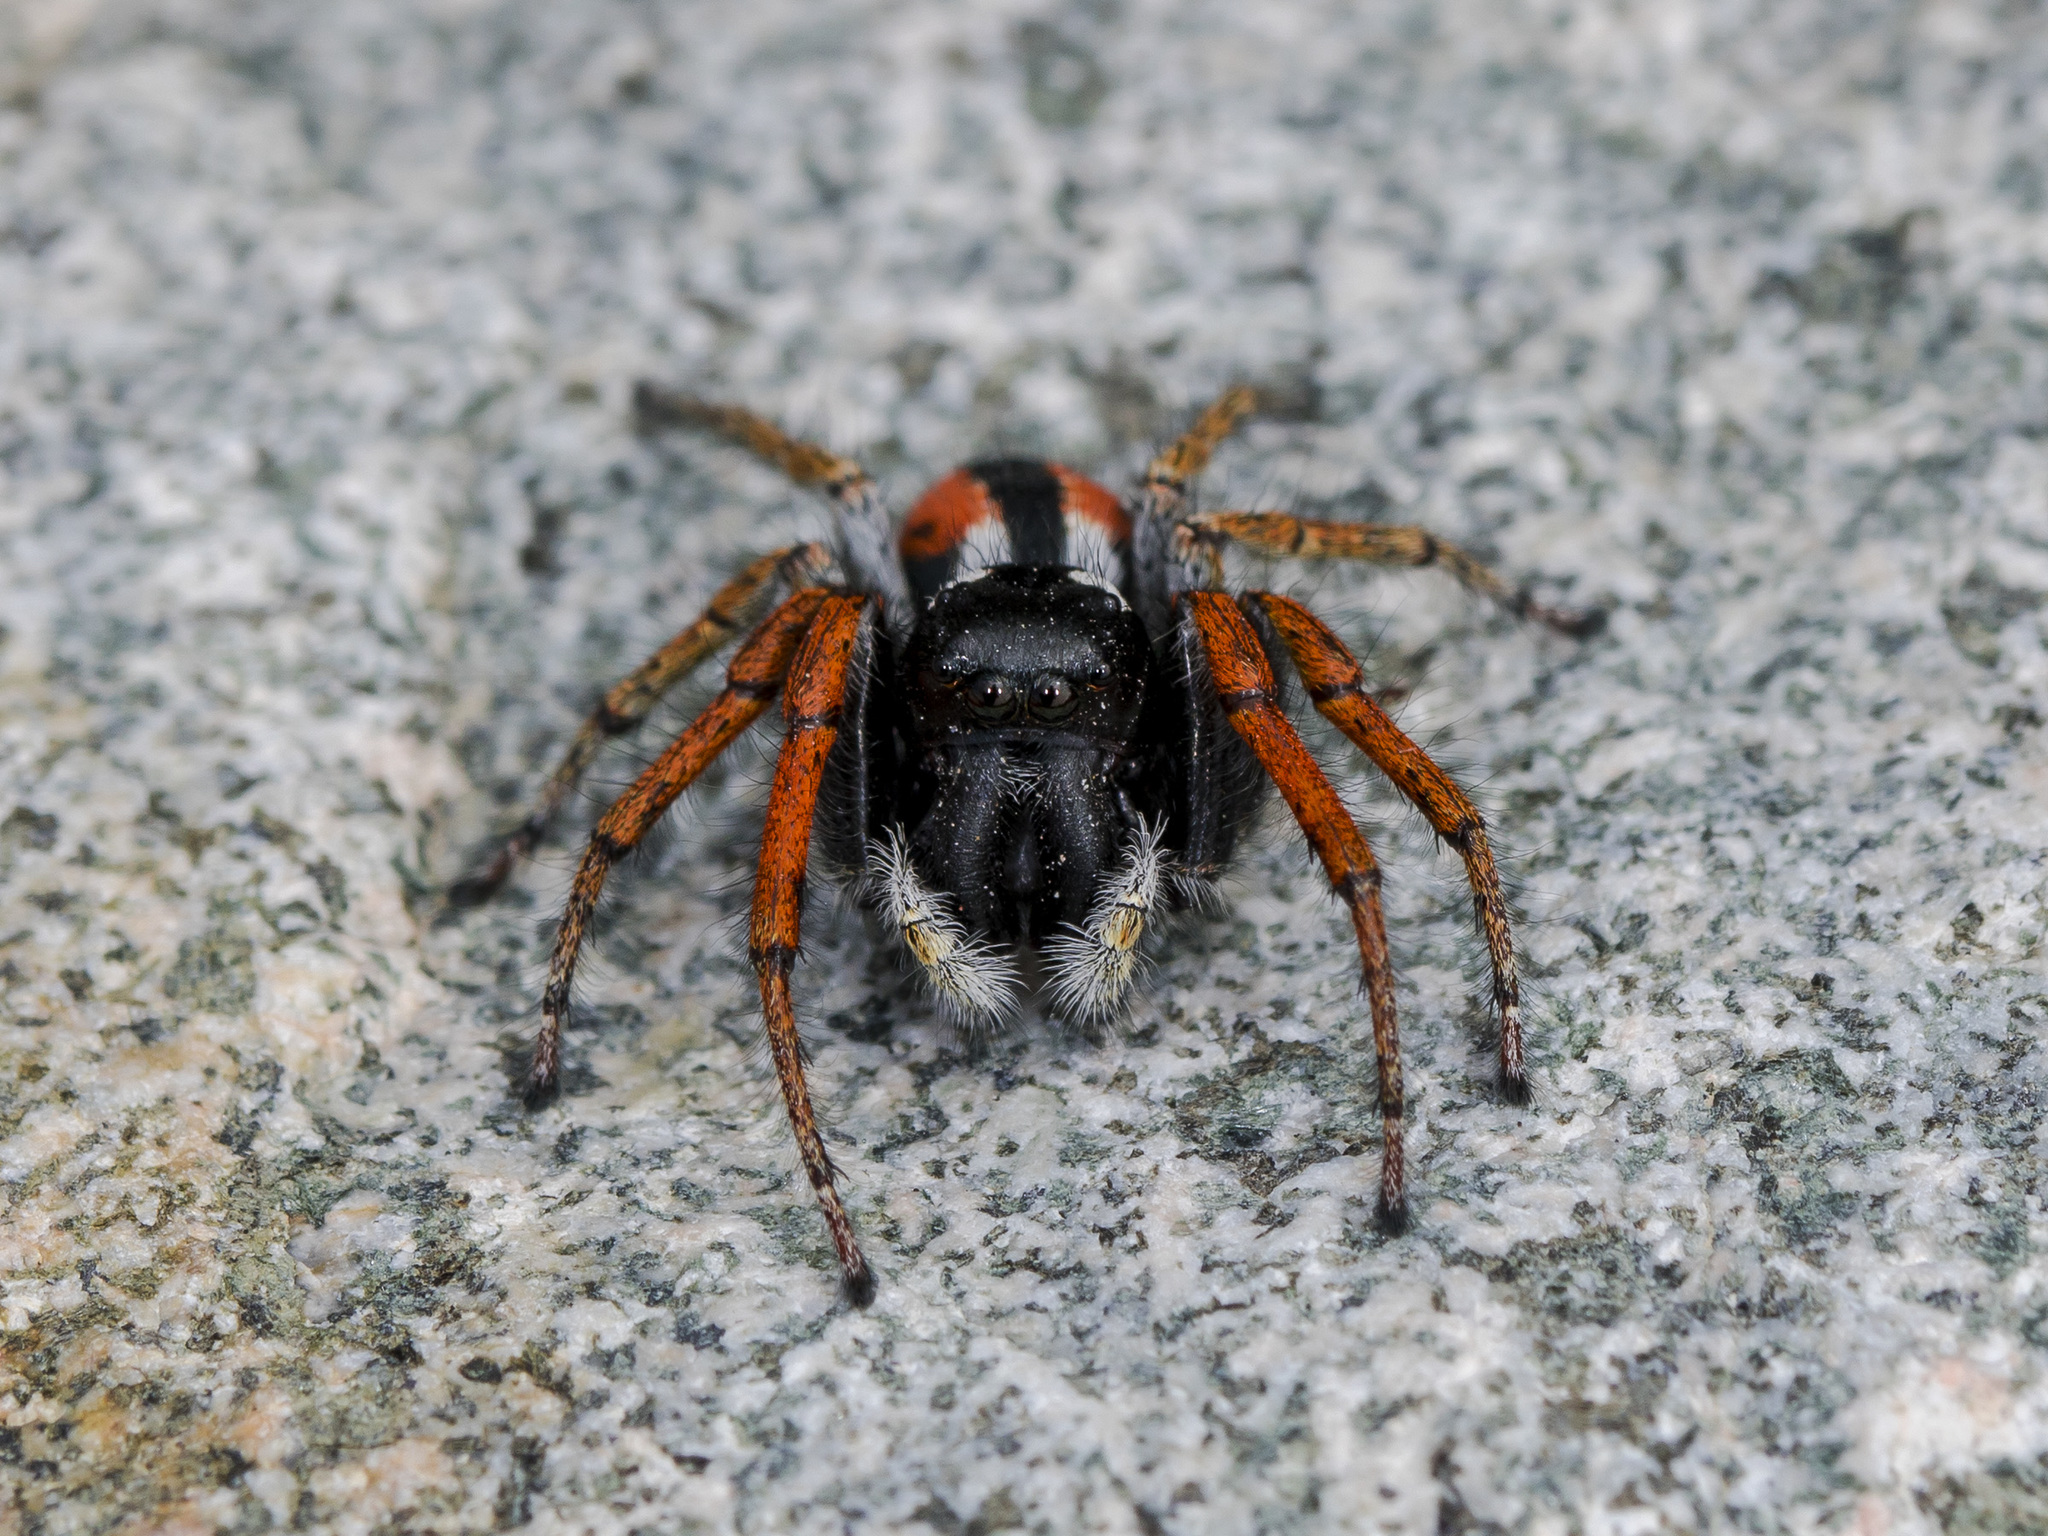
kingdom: Animalia
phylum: Arthropoda
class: Arachnida
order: Araneae
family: Salticidae
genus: Philaeus
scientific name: Philaeus chrysops
